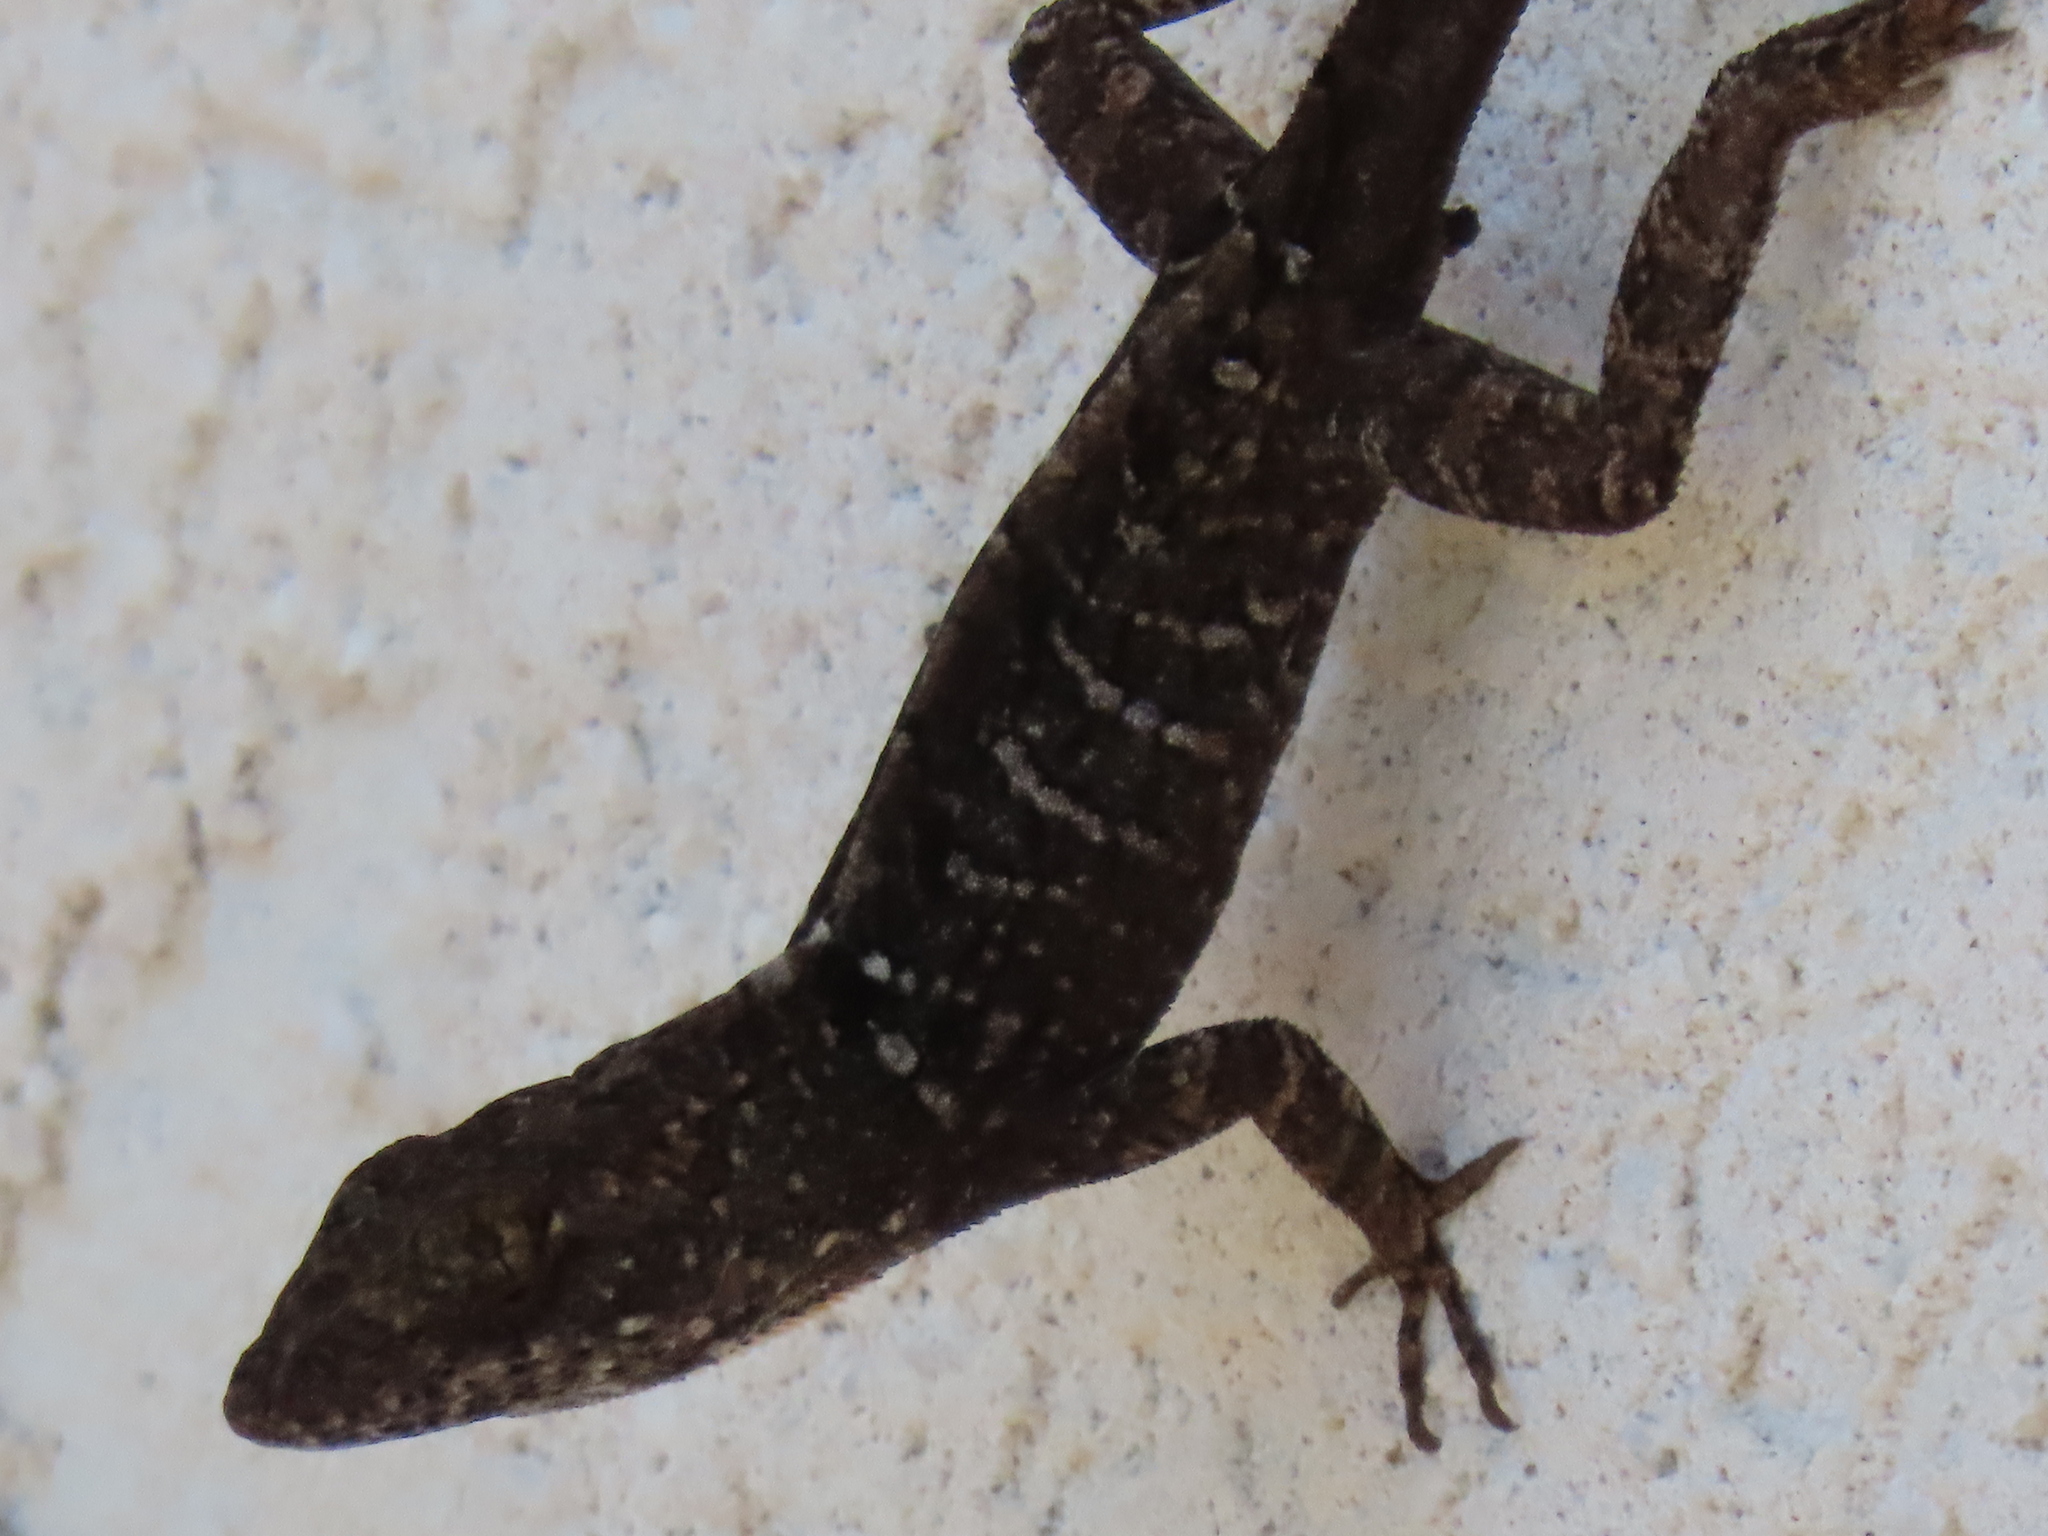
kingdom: Animalia
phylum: Chordata
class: Squamata
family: Dactyloidae
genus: Anolis
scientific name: Anolis sagrei
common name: Brown anole
